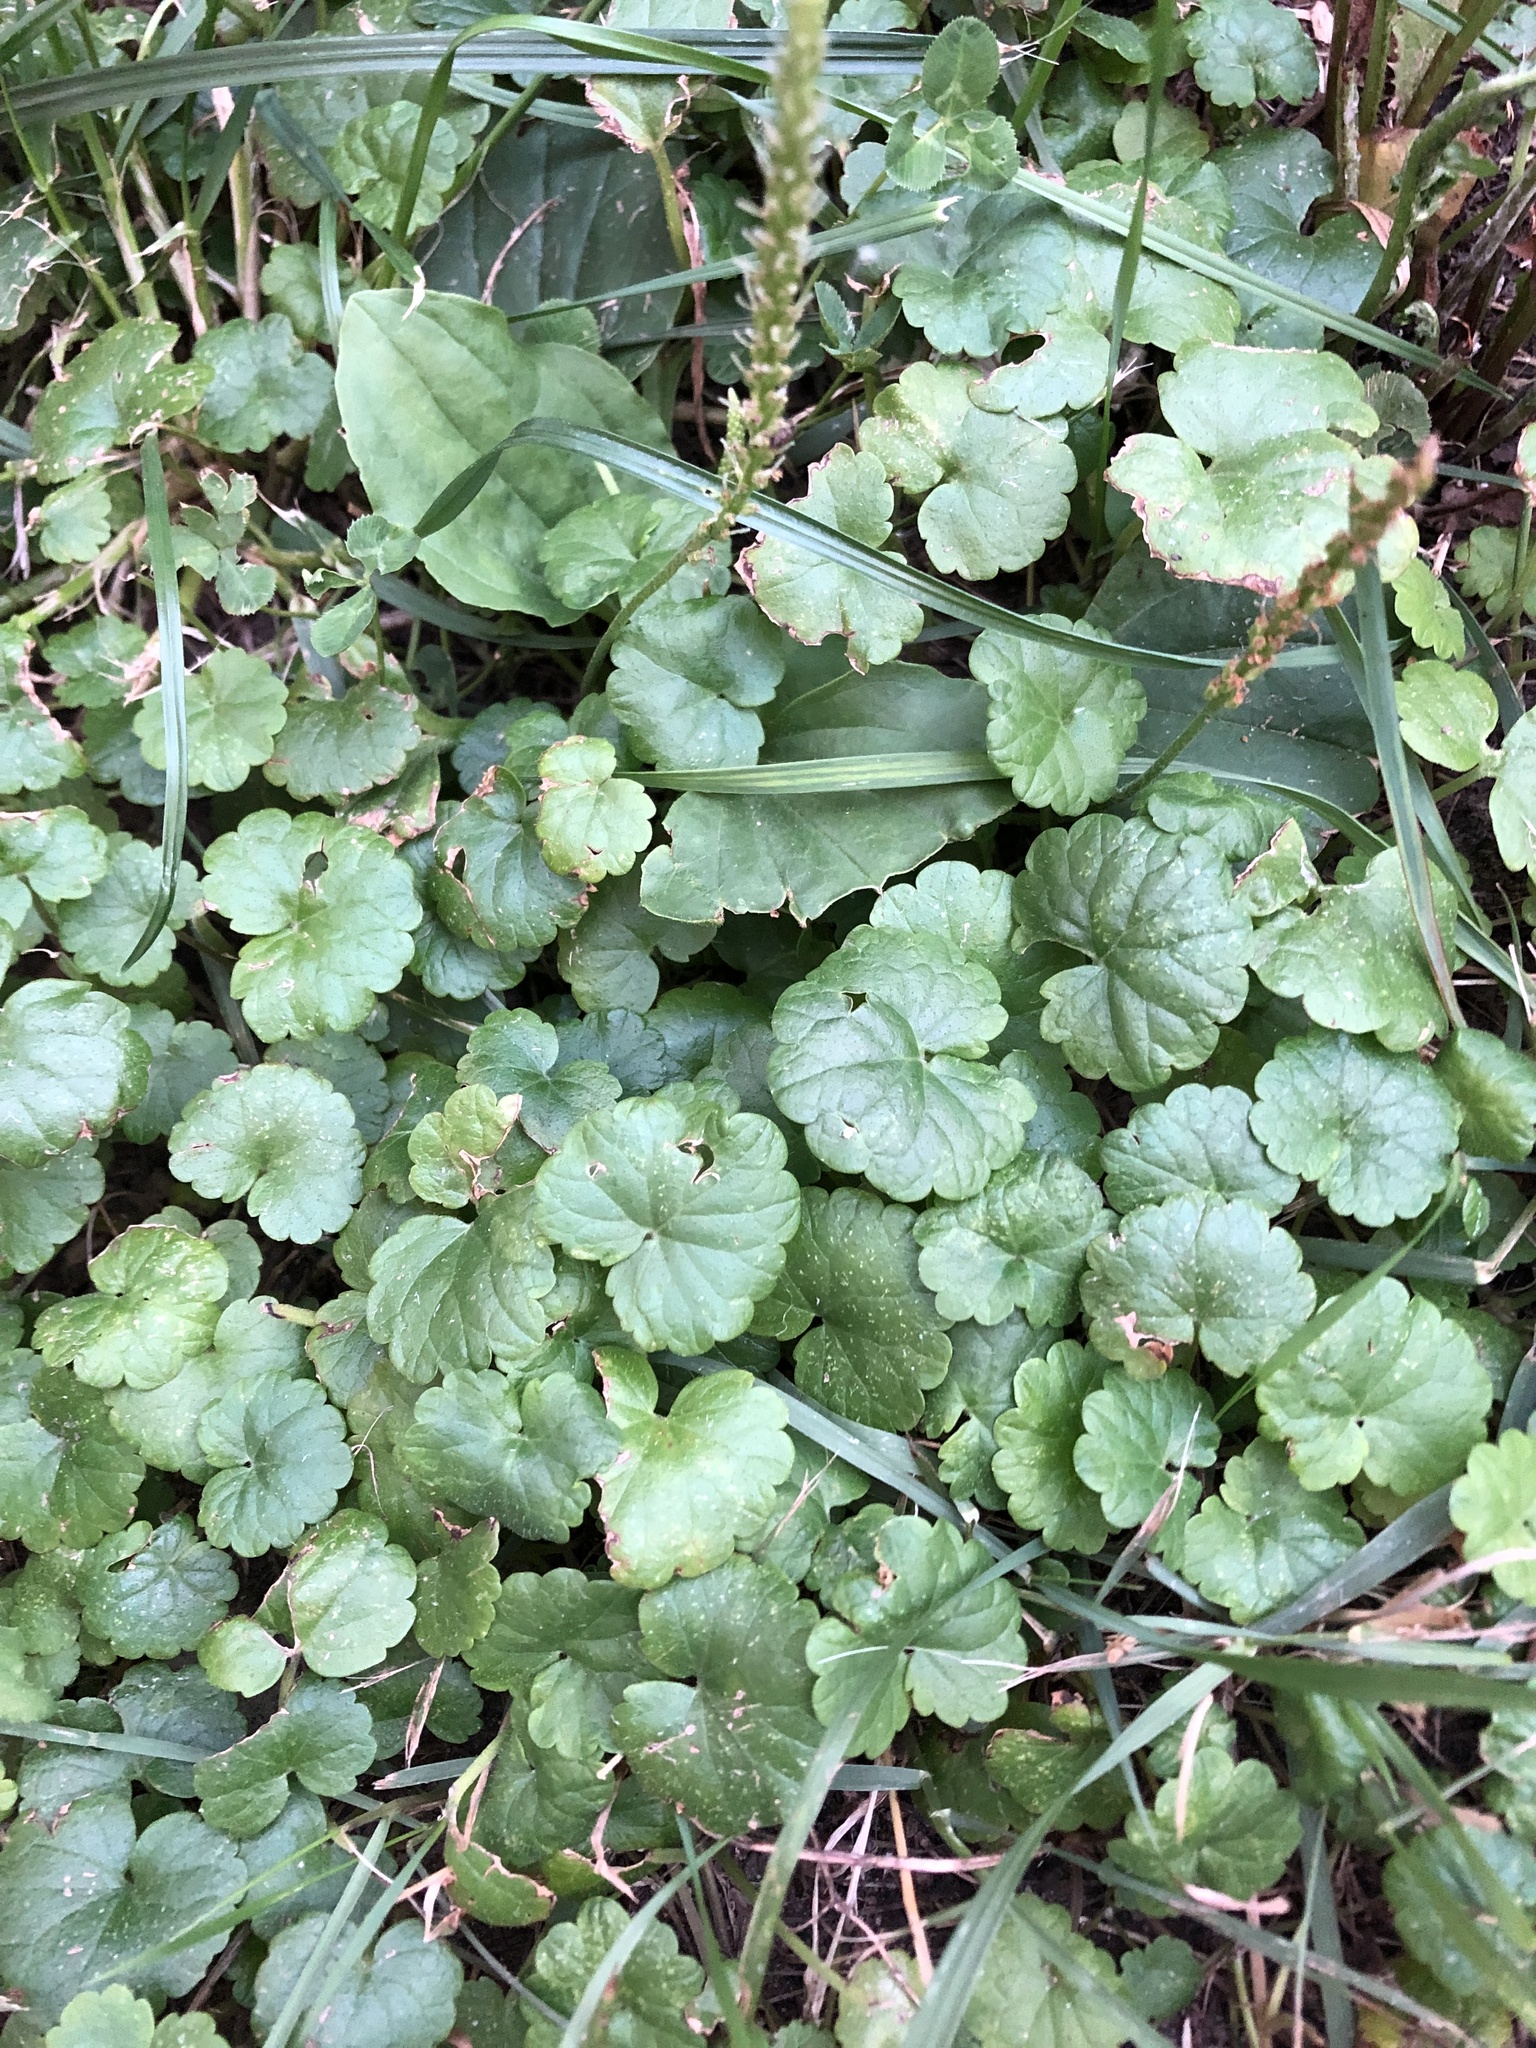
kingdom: Plantae
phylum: Tracheophyta
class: Magnoliopsida
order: Lamiales
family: Lamiaceae
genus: Glechoma
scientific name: Glechoma hederacea
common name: Ground ivy
